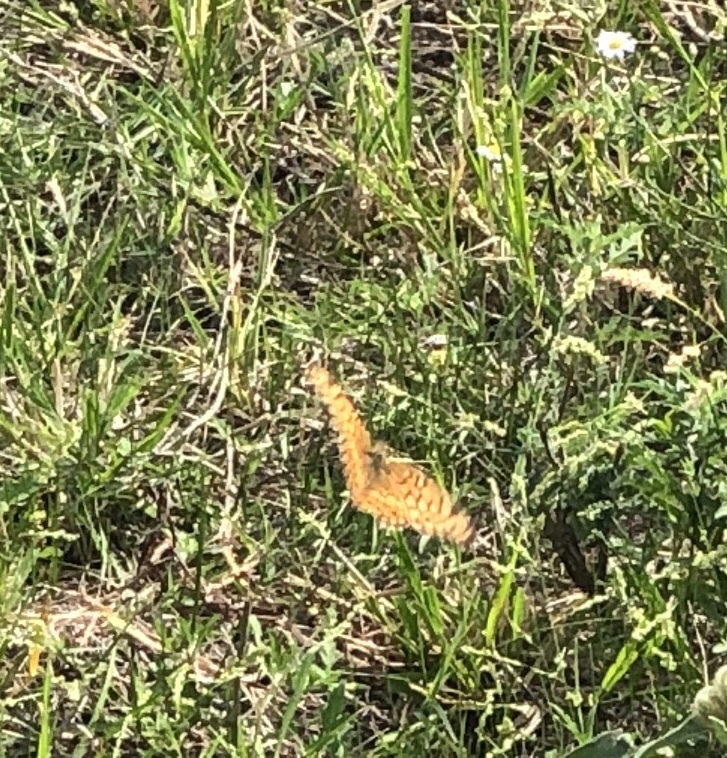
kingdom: Animalia
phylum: Arthropoda
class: Insecta
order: Lepidoptera
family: Nymphalidae
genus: Euptoieta
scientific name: Euptoieta claudia
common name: Variegated fritillary
